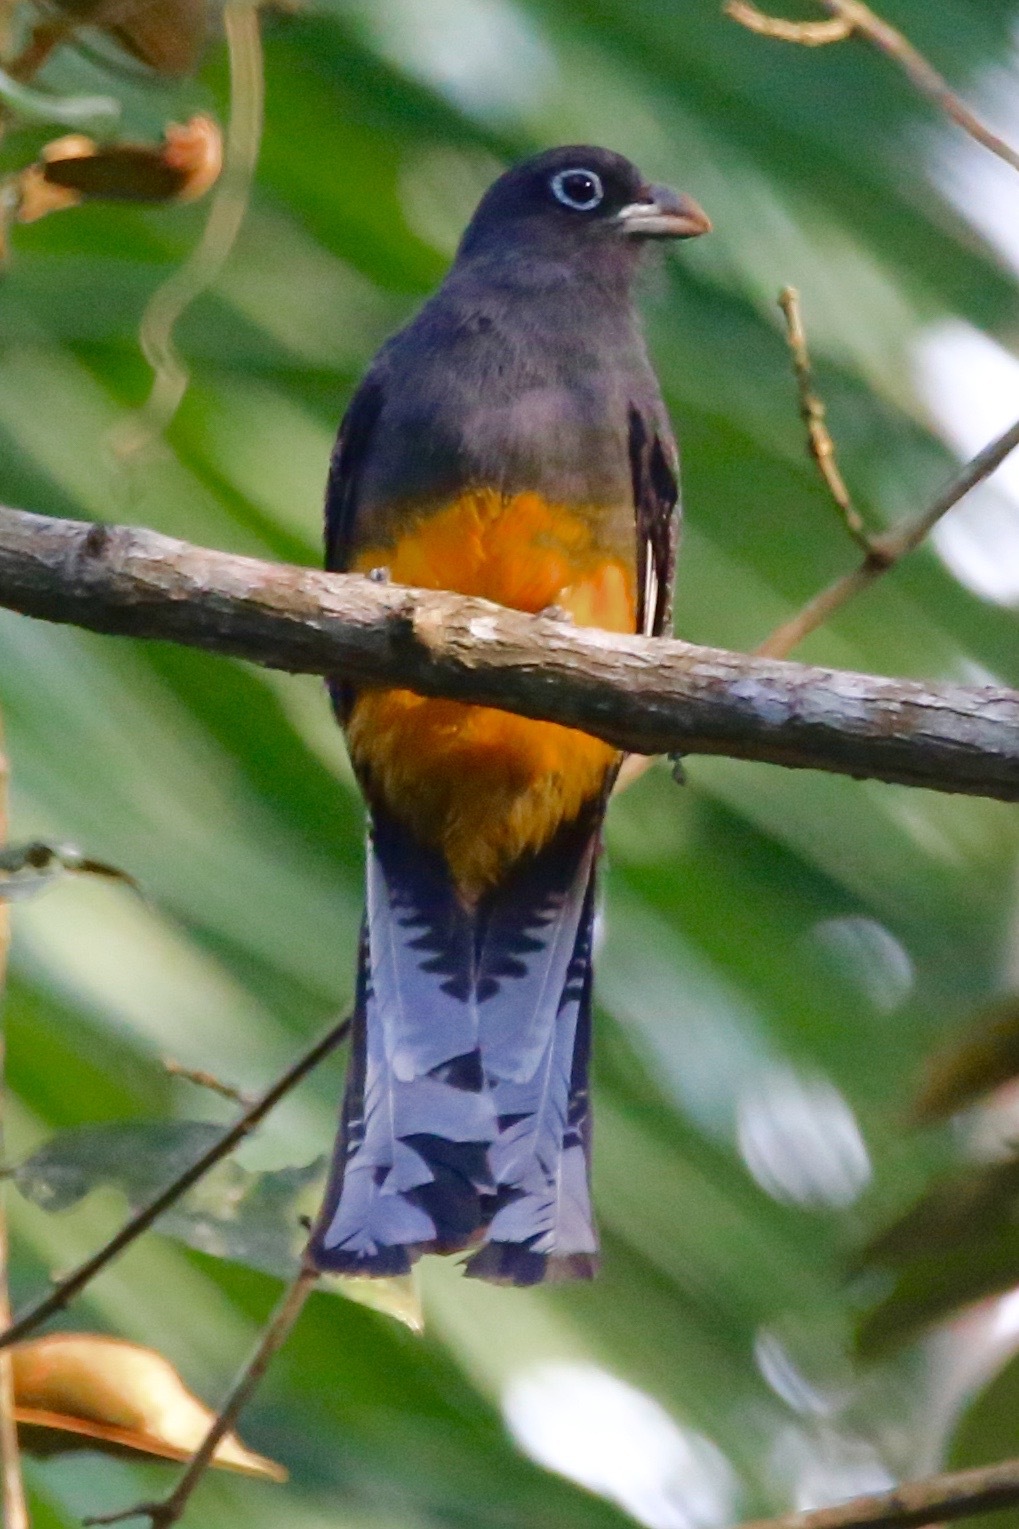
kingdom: Animalia
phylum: Chordata
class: Aves
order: Trogoniformes
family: Trogonidae
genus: Trogon
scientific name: Trogon chionurus
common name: White-tailed trogon
